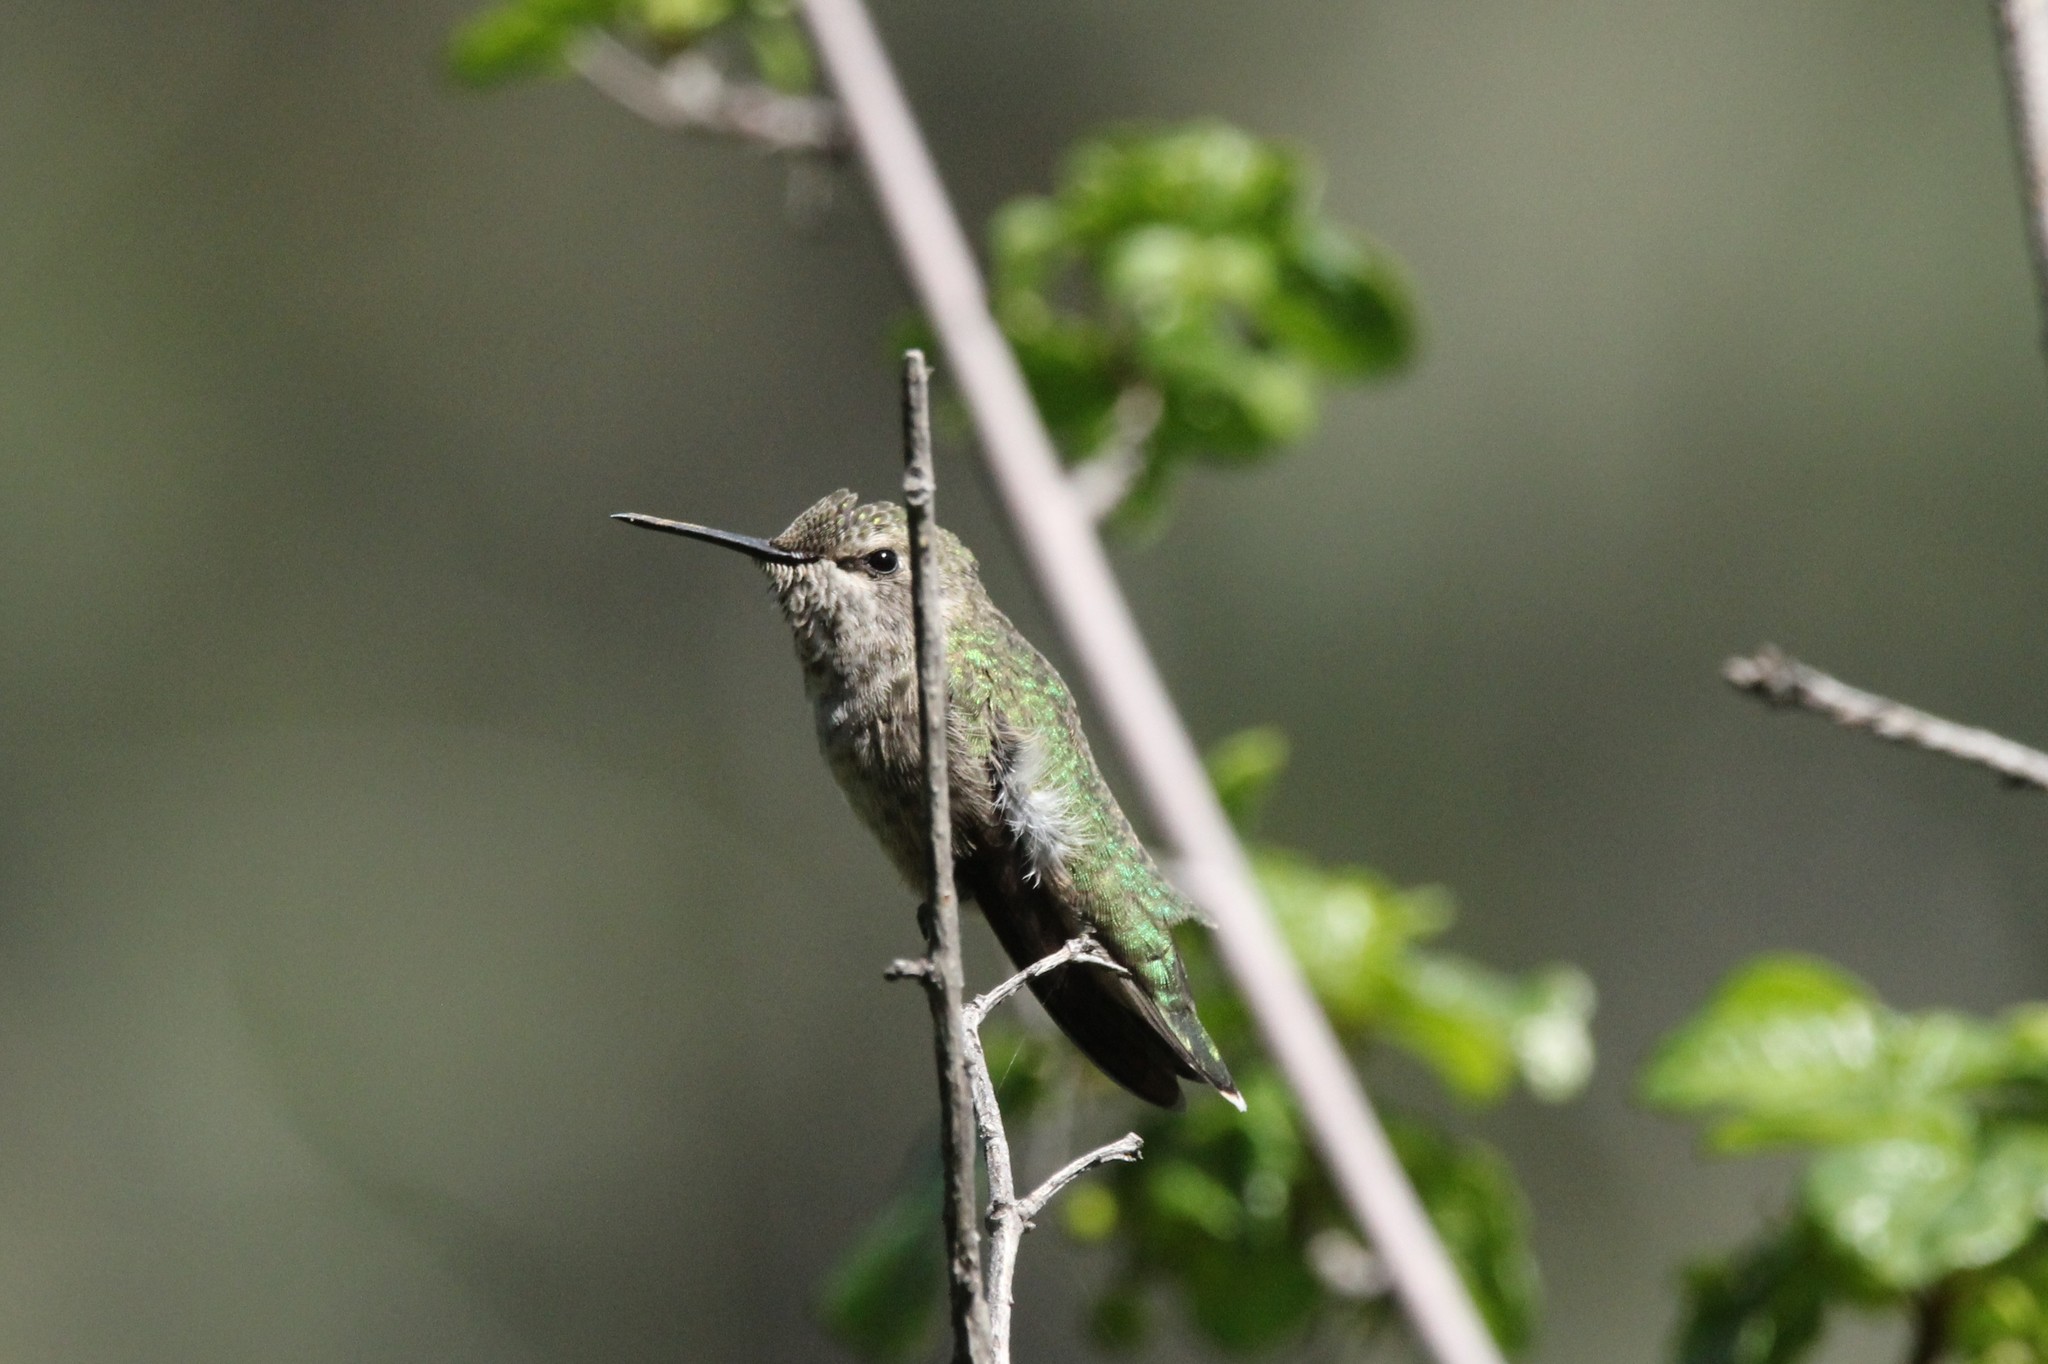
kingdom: Animalia
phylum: Chordata
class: Aves
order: Apodiformes
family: Trochilidae
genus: Calypte
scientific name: Calypte anna
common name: Anna's hummingbird
